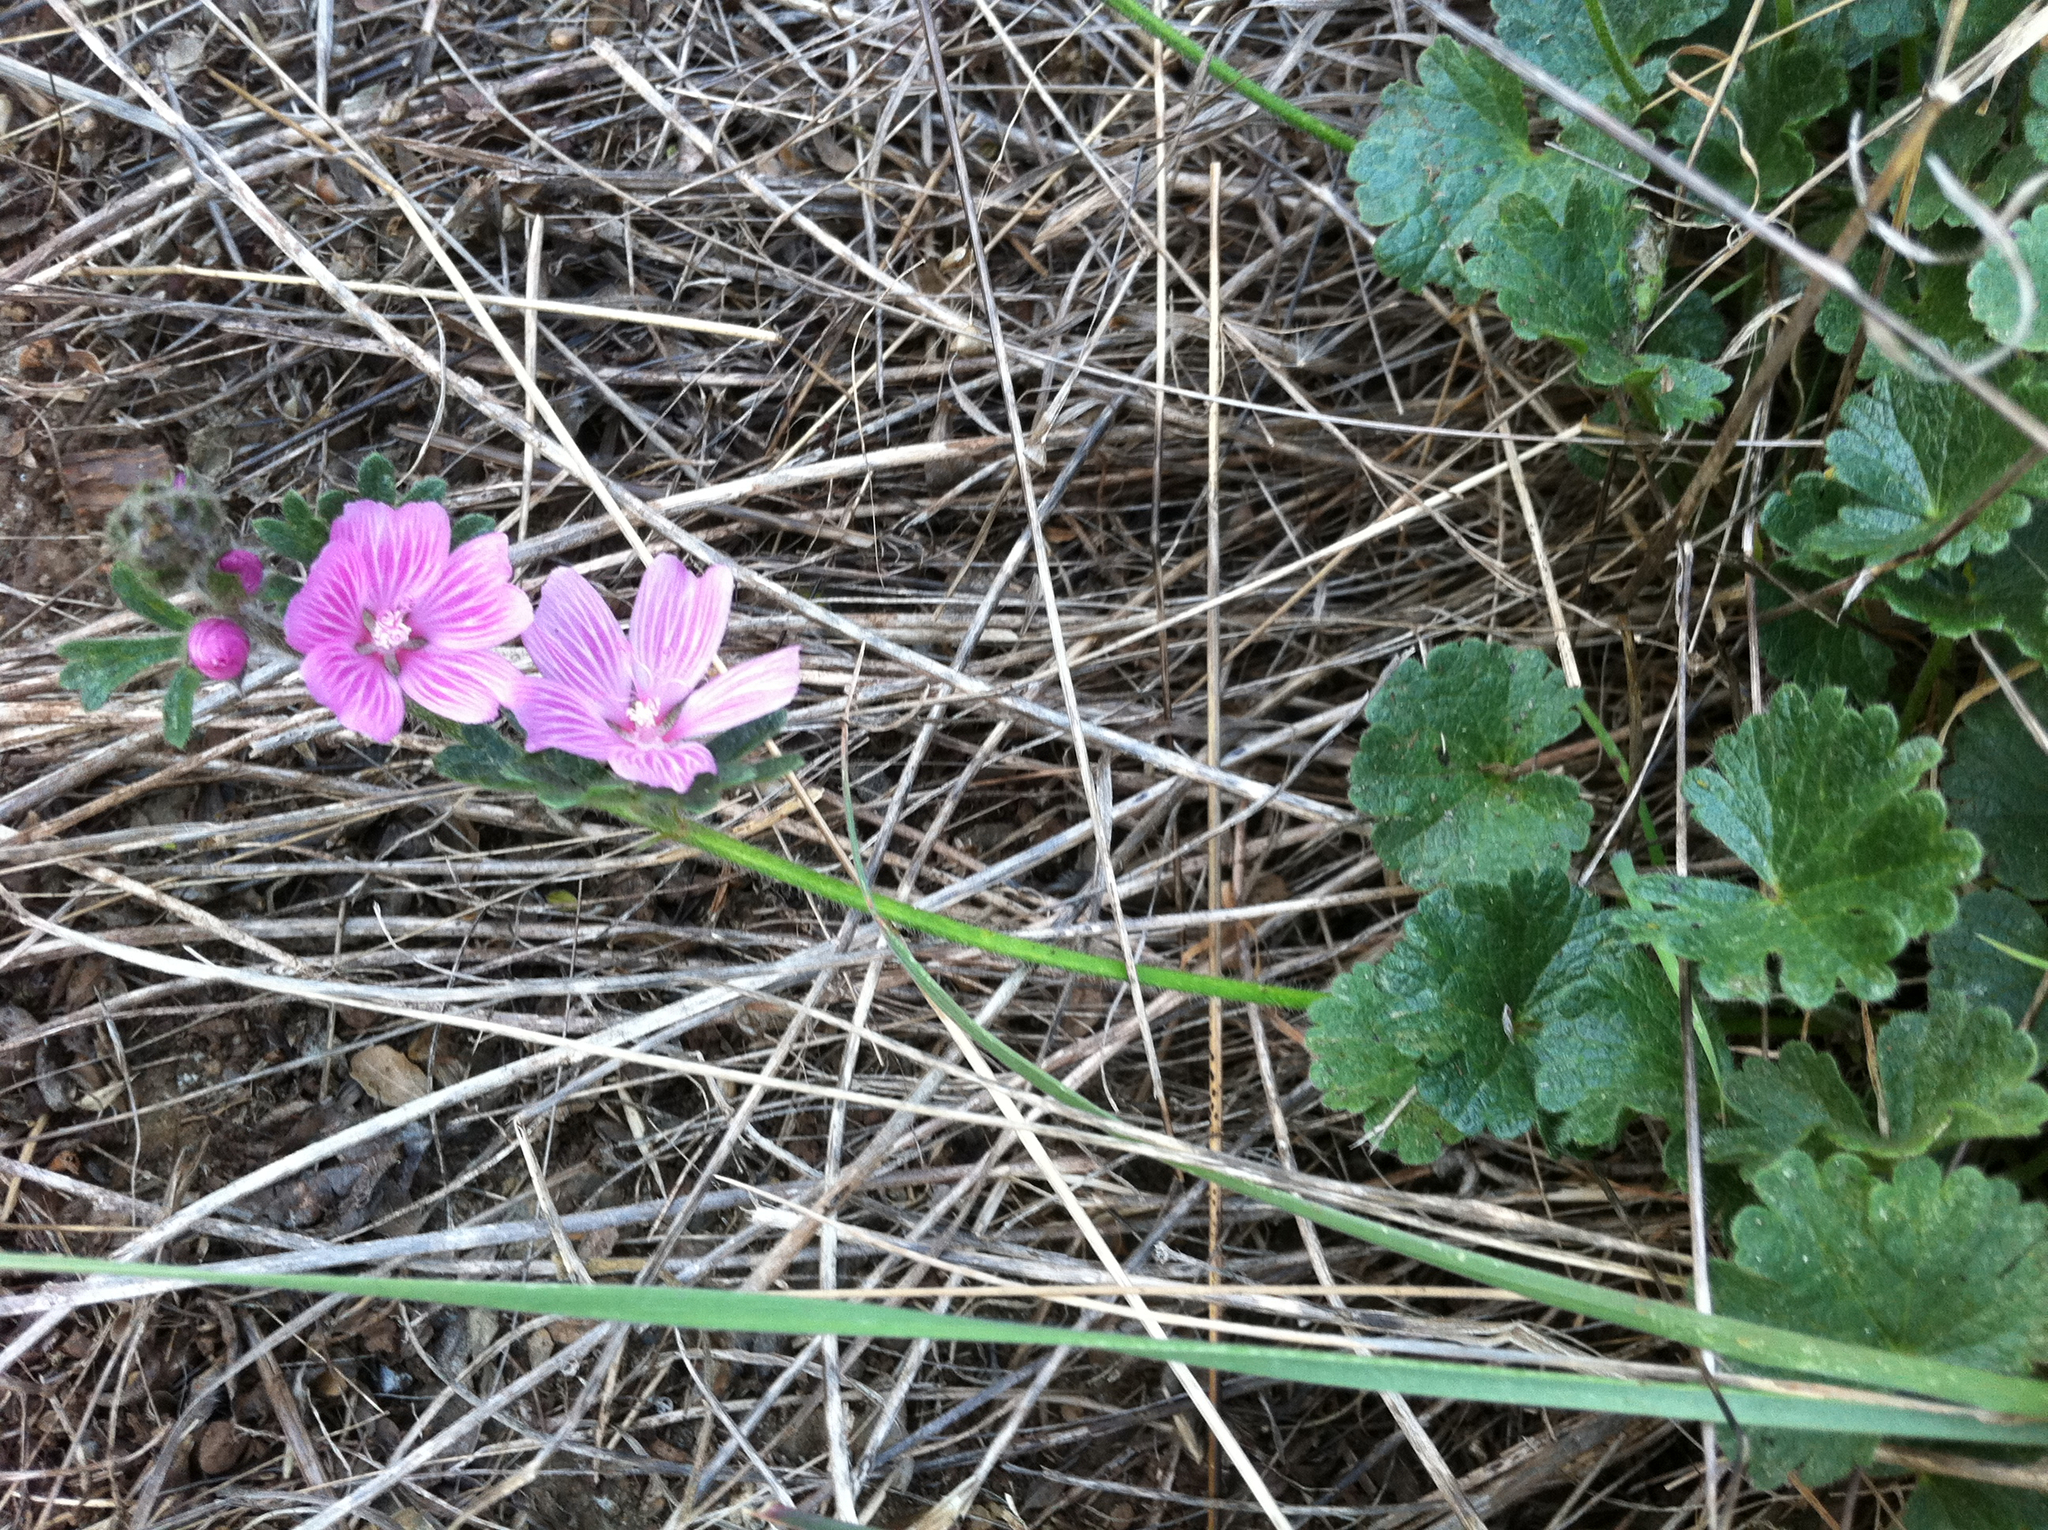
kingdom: Plantae
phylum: Tracheophyta
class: Magnoliopsida
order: Malvales
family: Malvaceae
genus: Sidalcea
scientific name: Sidalcea malviflora
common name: Greek mallow
